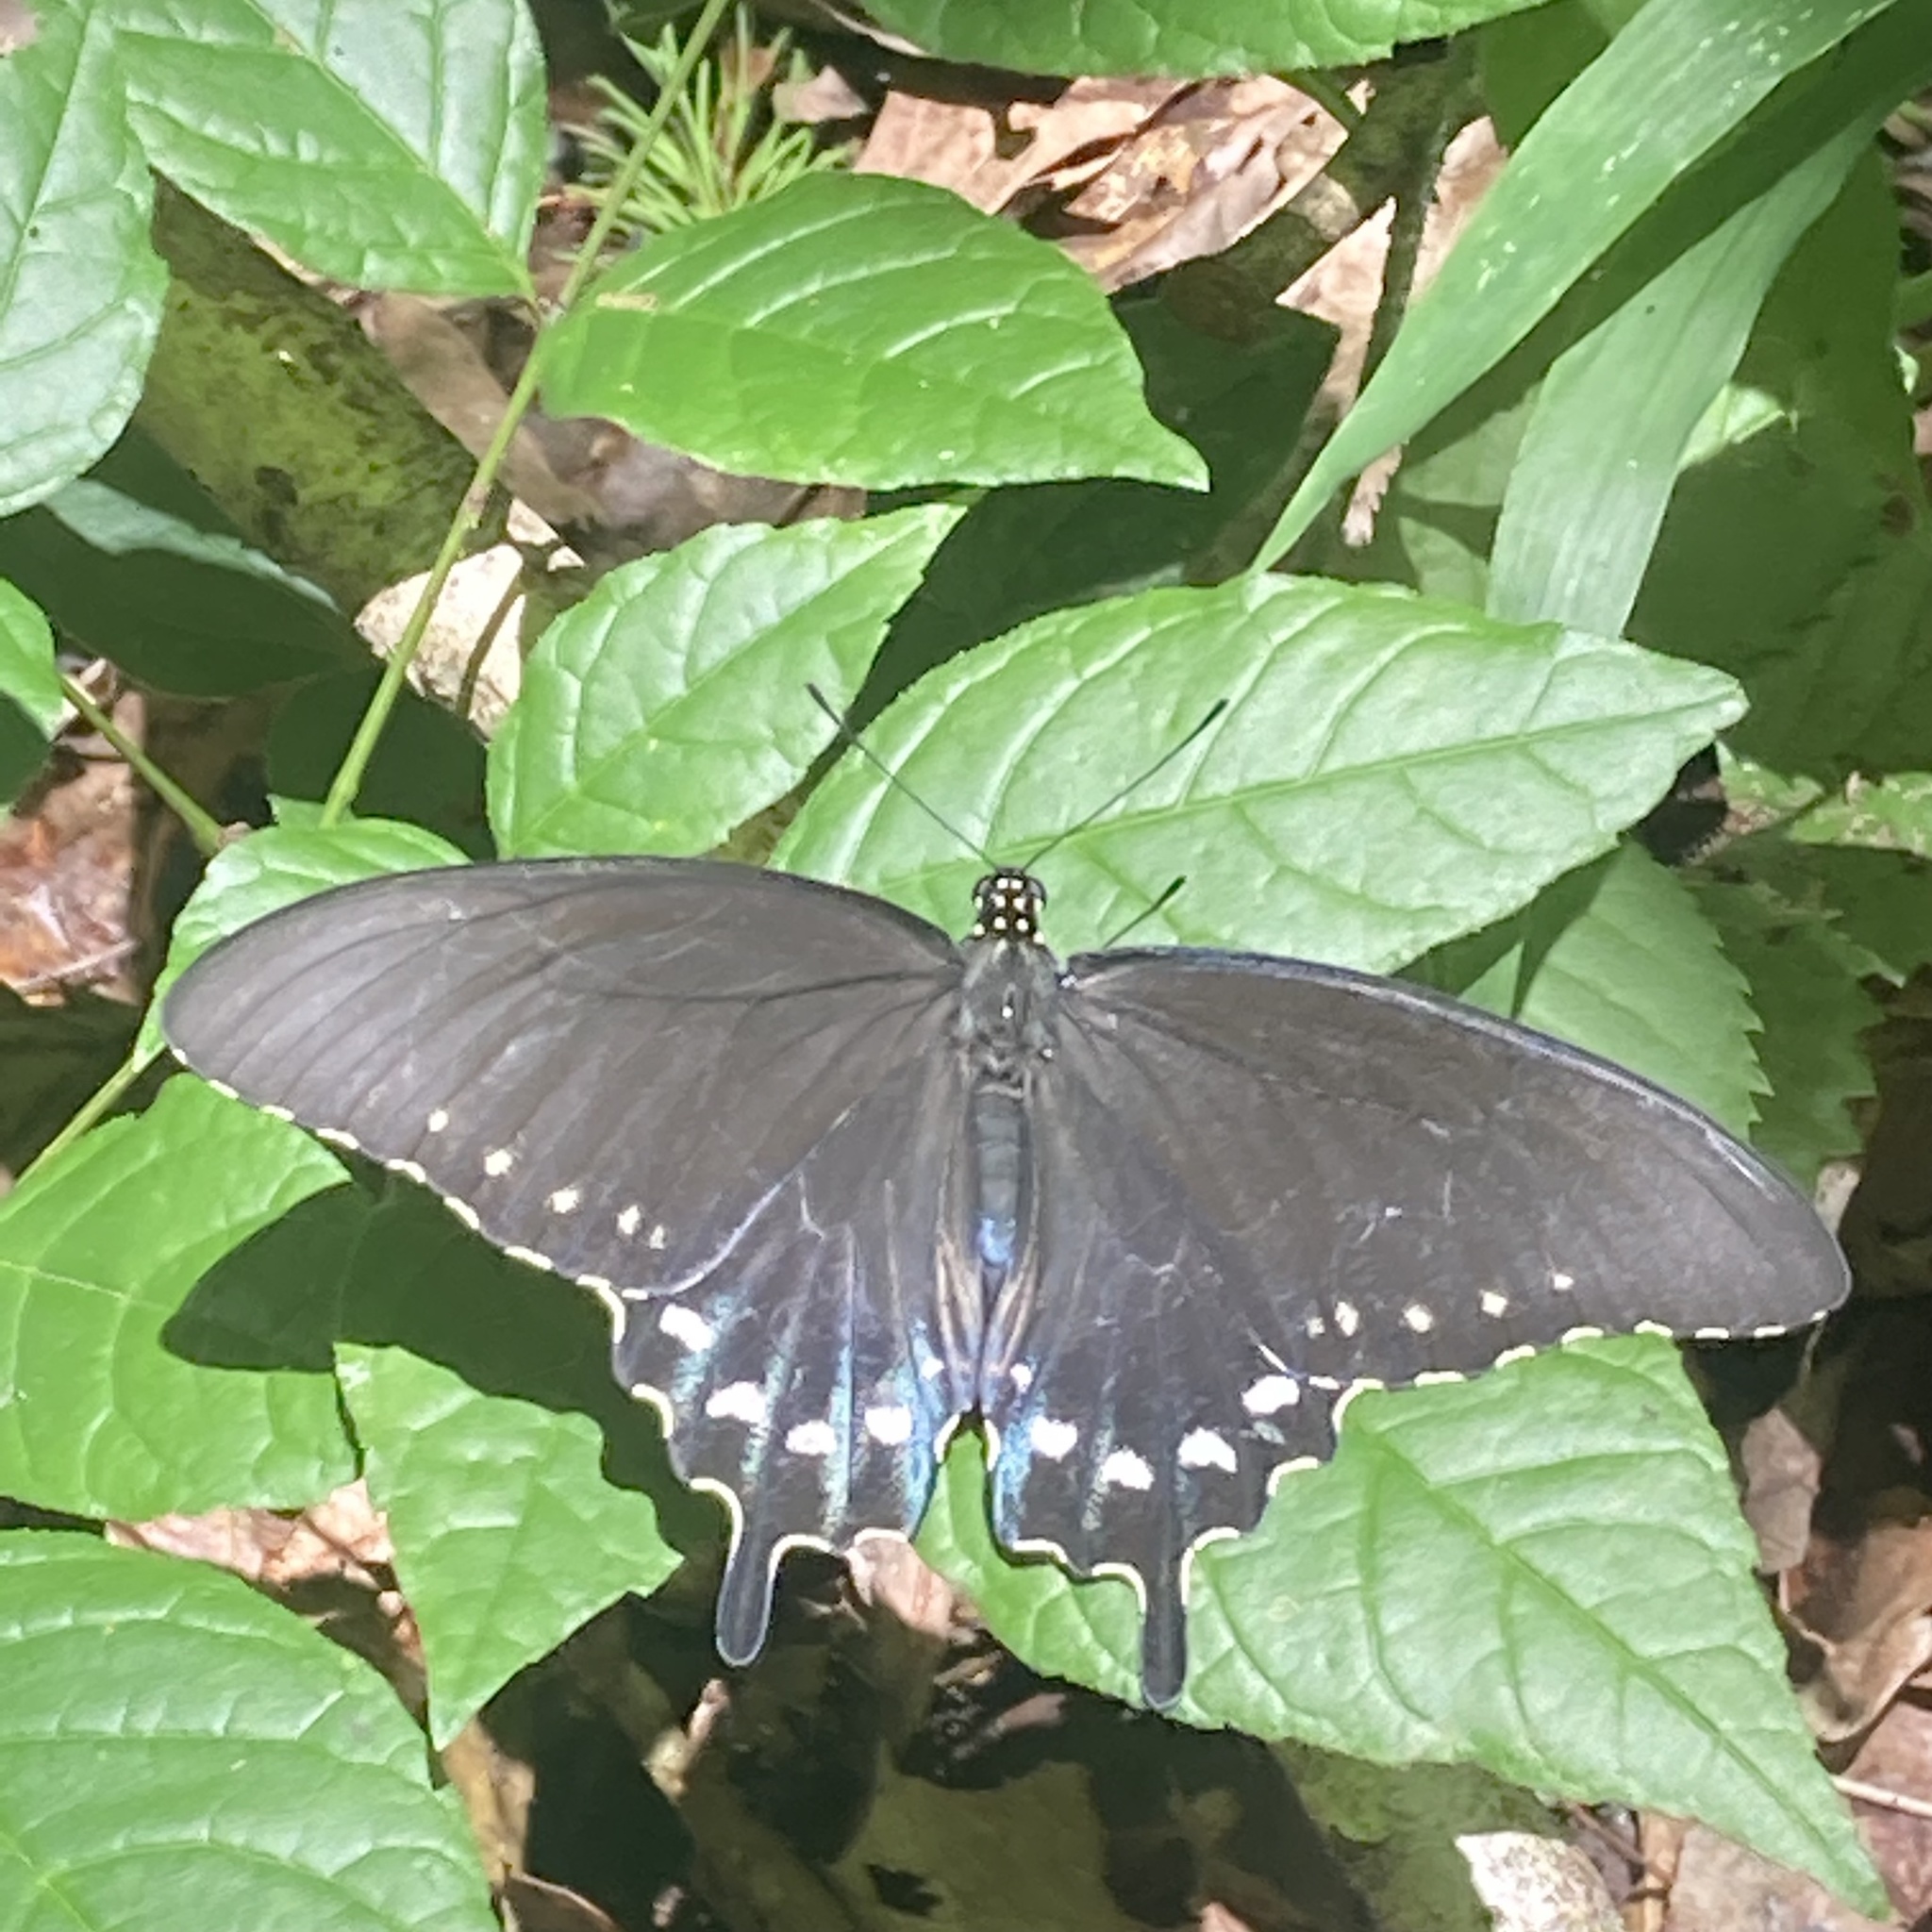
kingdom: Animalia
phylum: Arthropoda
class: Insecta
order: Lepidoptera
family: Papilionidae
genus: Battus
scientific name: Battus philenor
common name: Pipevine swallowtail
